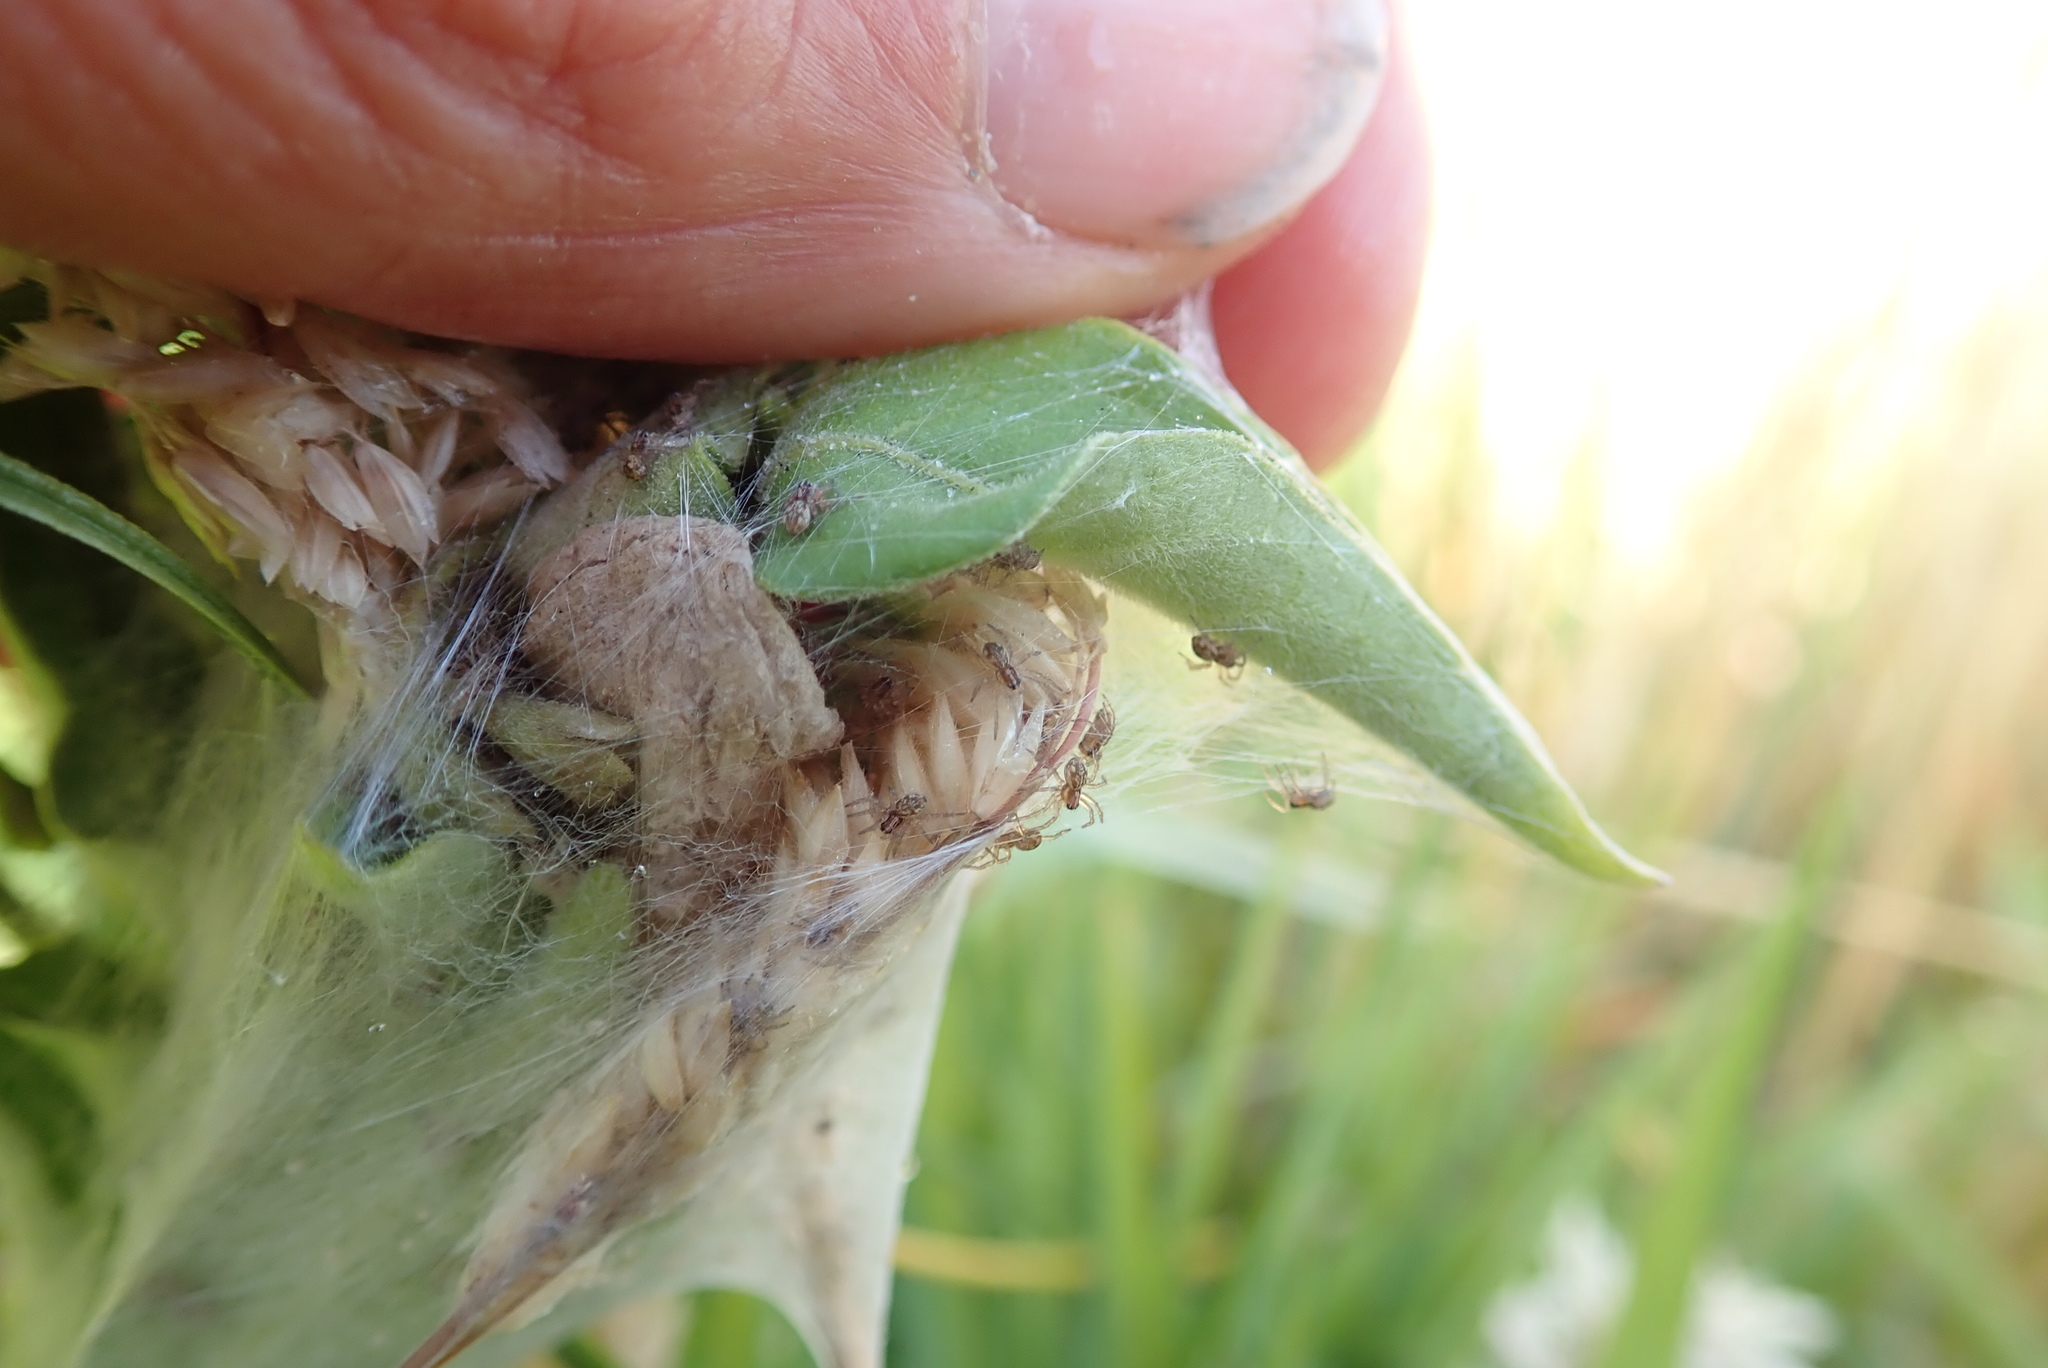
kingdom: Animalia
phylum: Arthropoda
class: Arachnida
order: Araneae
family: Pisauridae
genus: Dolomedes
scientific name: Dolomedes minor
